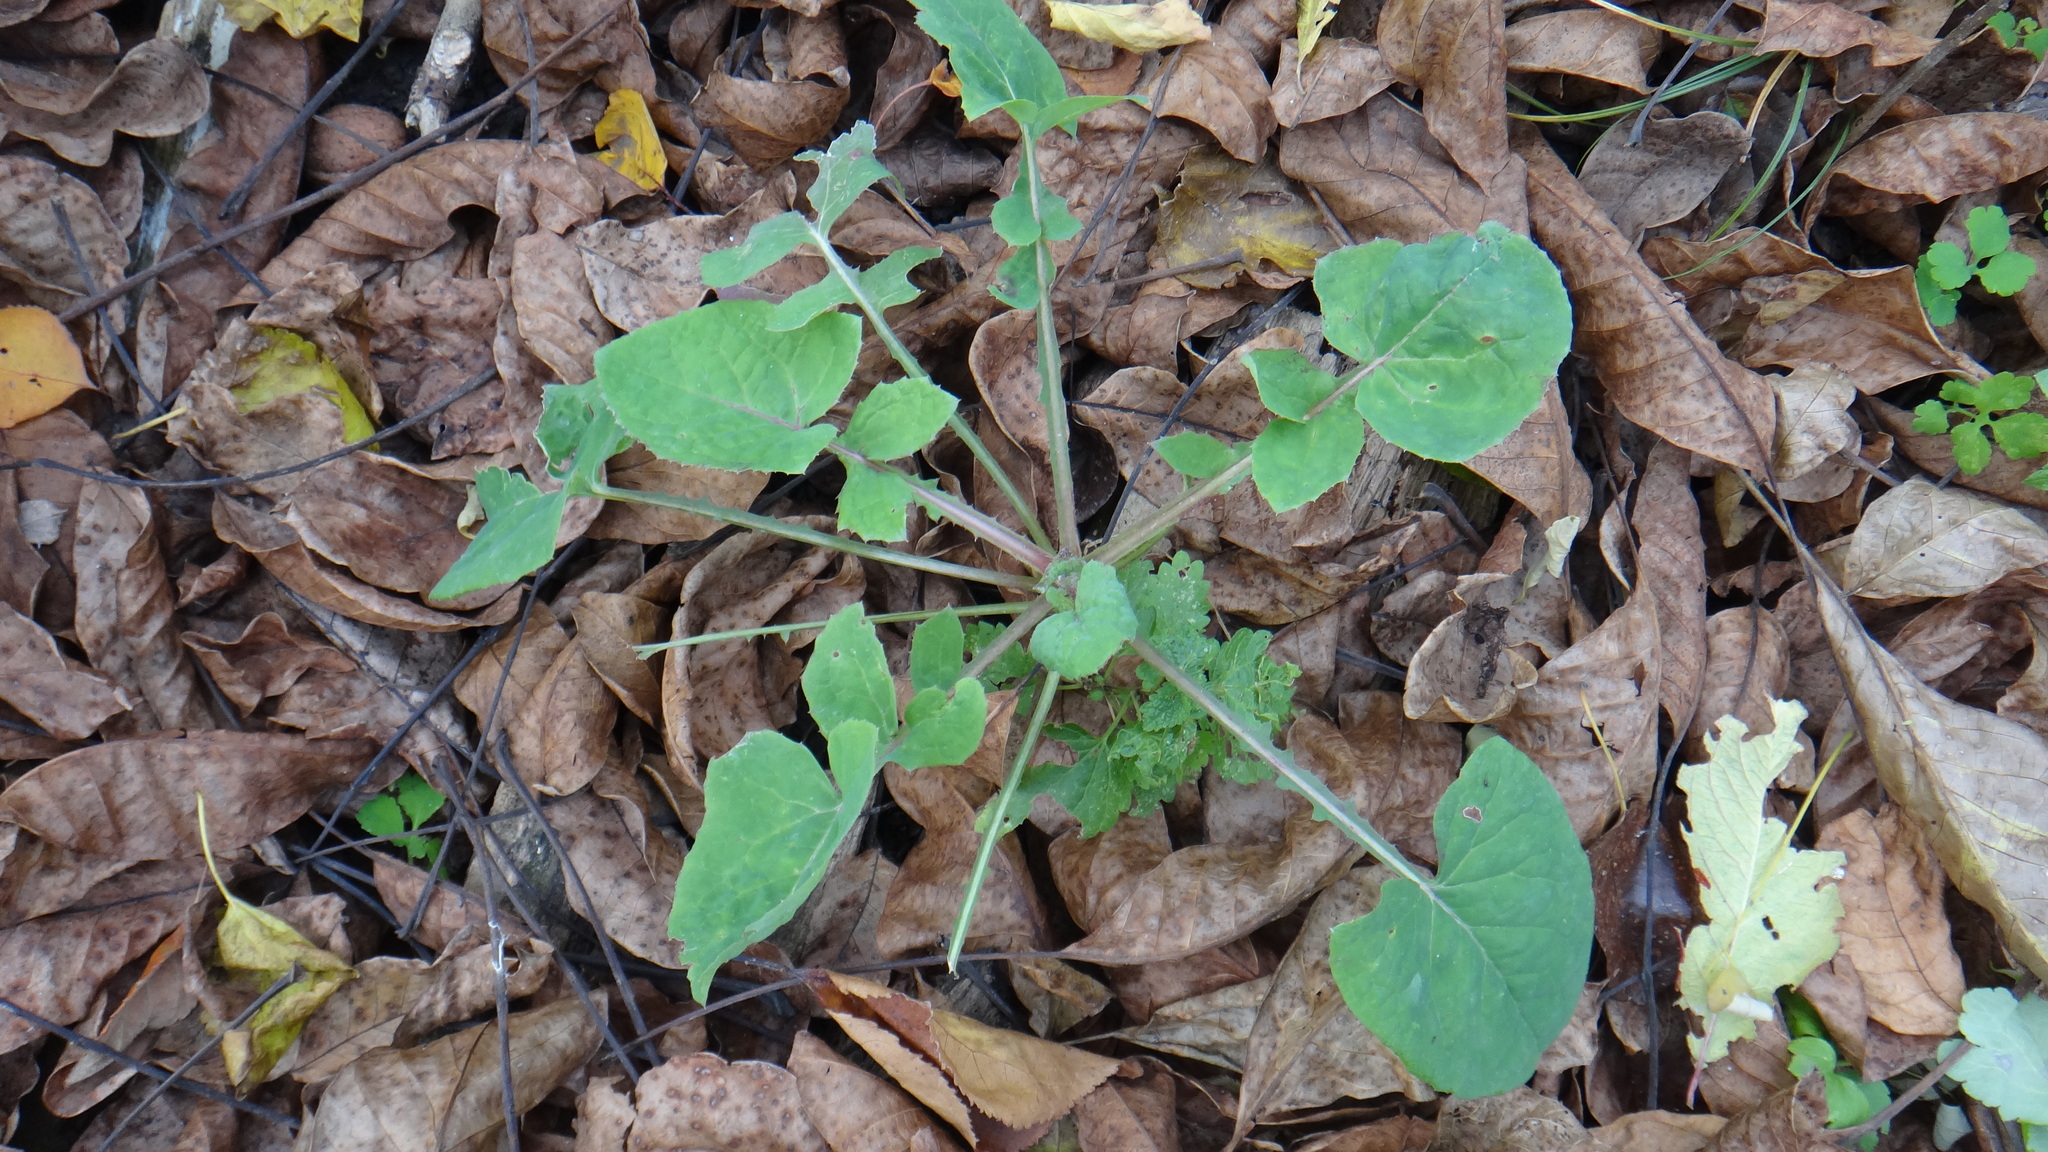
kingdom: Plantae
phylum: Tracheophyta
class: Magnoliopsida
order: Asterales
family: Asteraceae
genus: Sonchus
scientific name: Sonchus oleraceus
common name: Common sowthistle
